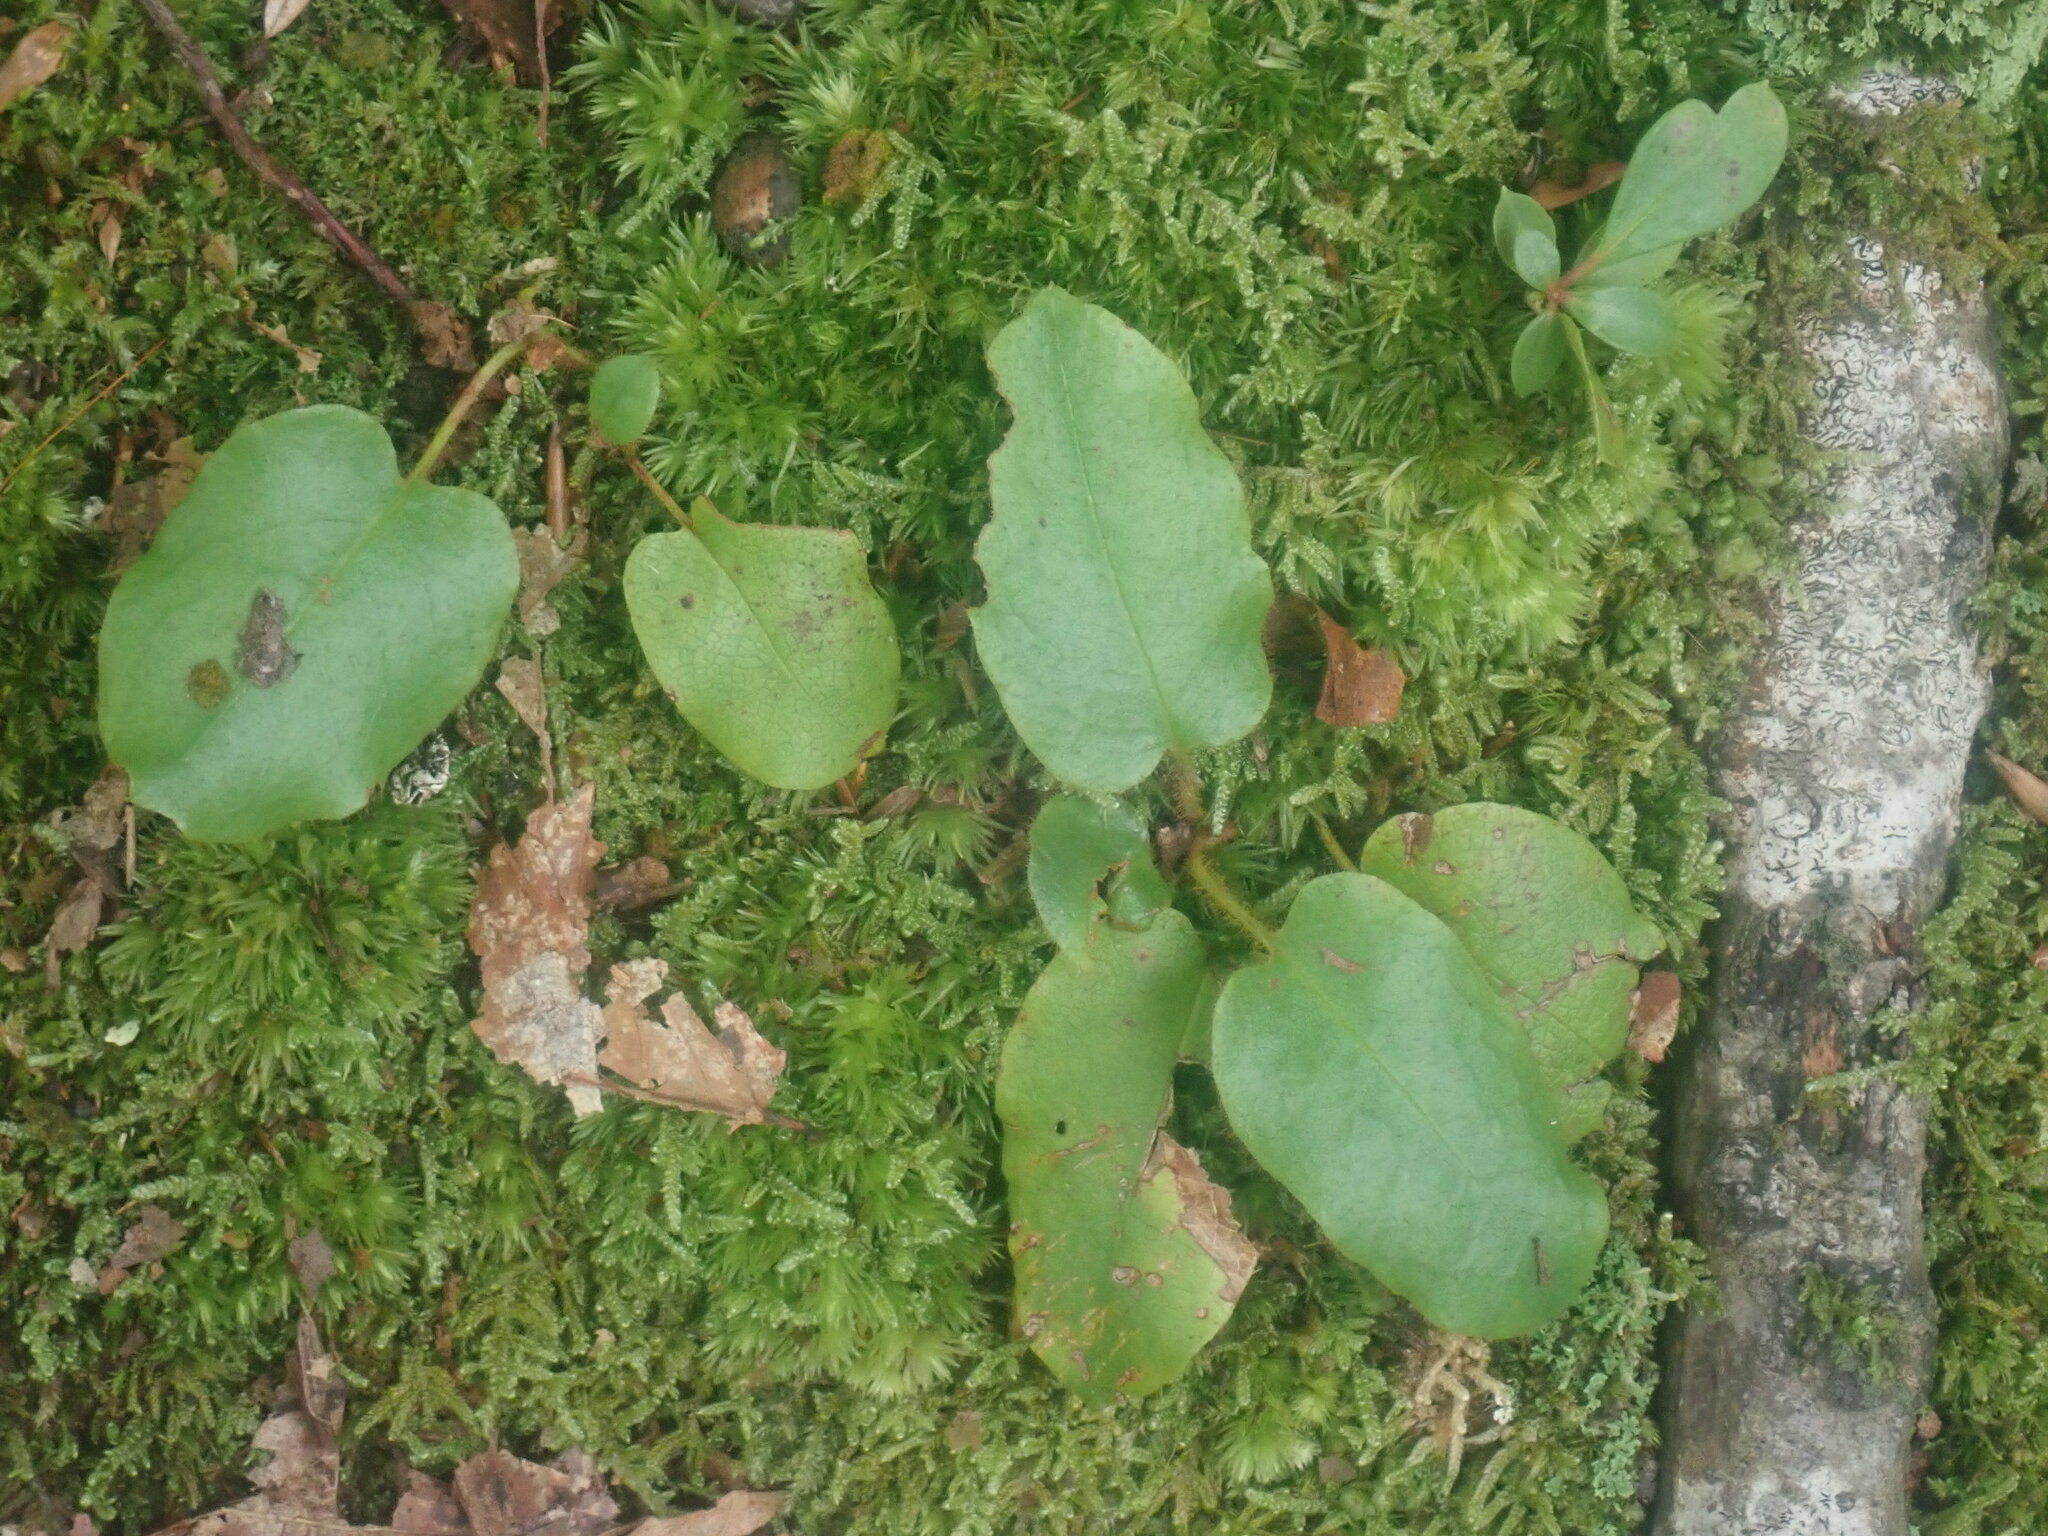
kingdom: Plantae
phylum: Tracheophyta
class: Magnoliopsida
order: Ericales
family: Ericaceae
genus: Epigaea
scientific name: Epigaea repens
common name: Gravelroot
